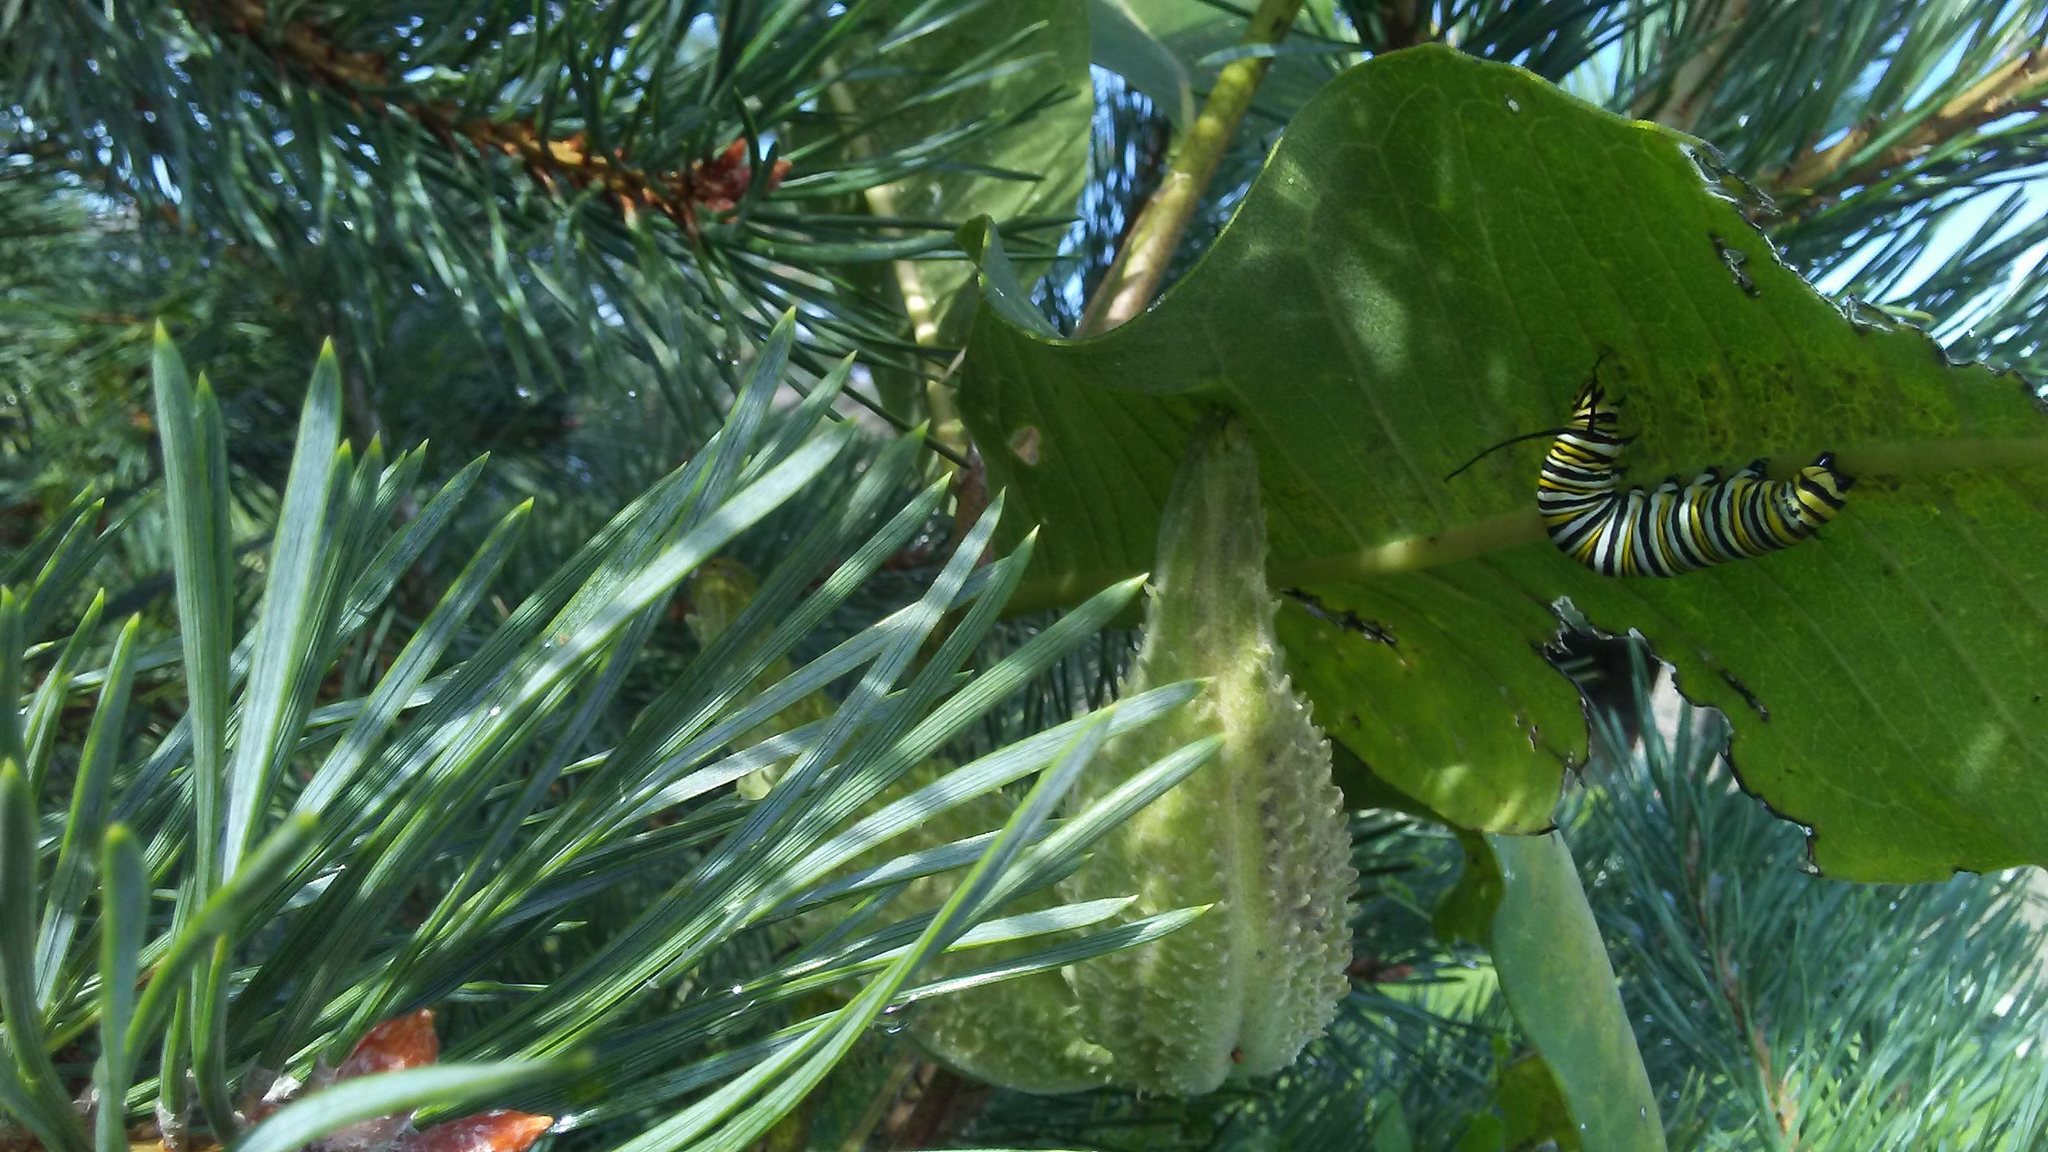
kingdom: Animalia
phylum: Arthropoda
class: Insecta
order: Lepidoptera
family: Nymphalidae
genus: Danaus
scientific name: Danaus plexippus
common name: Monarch
